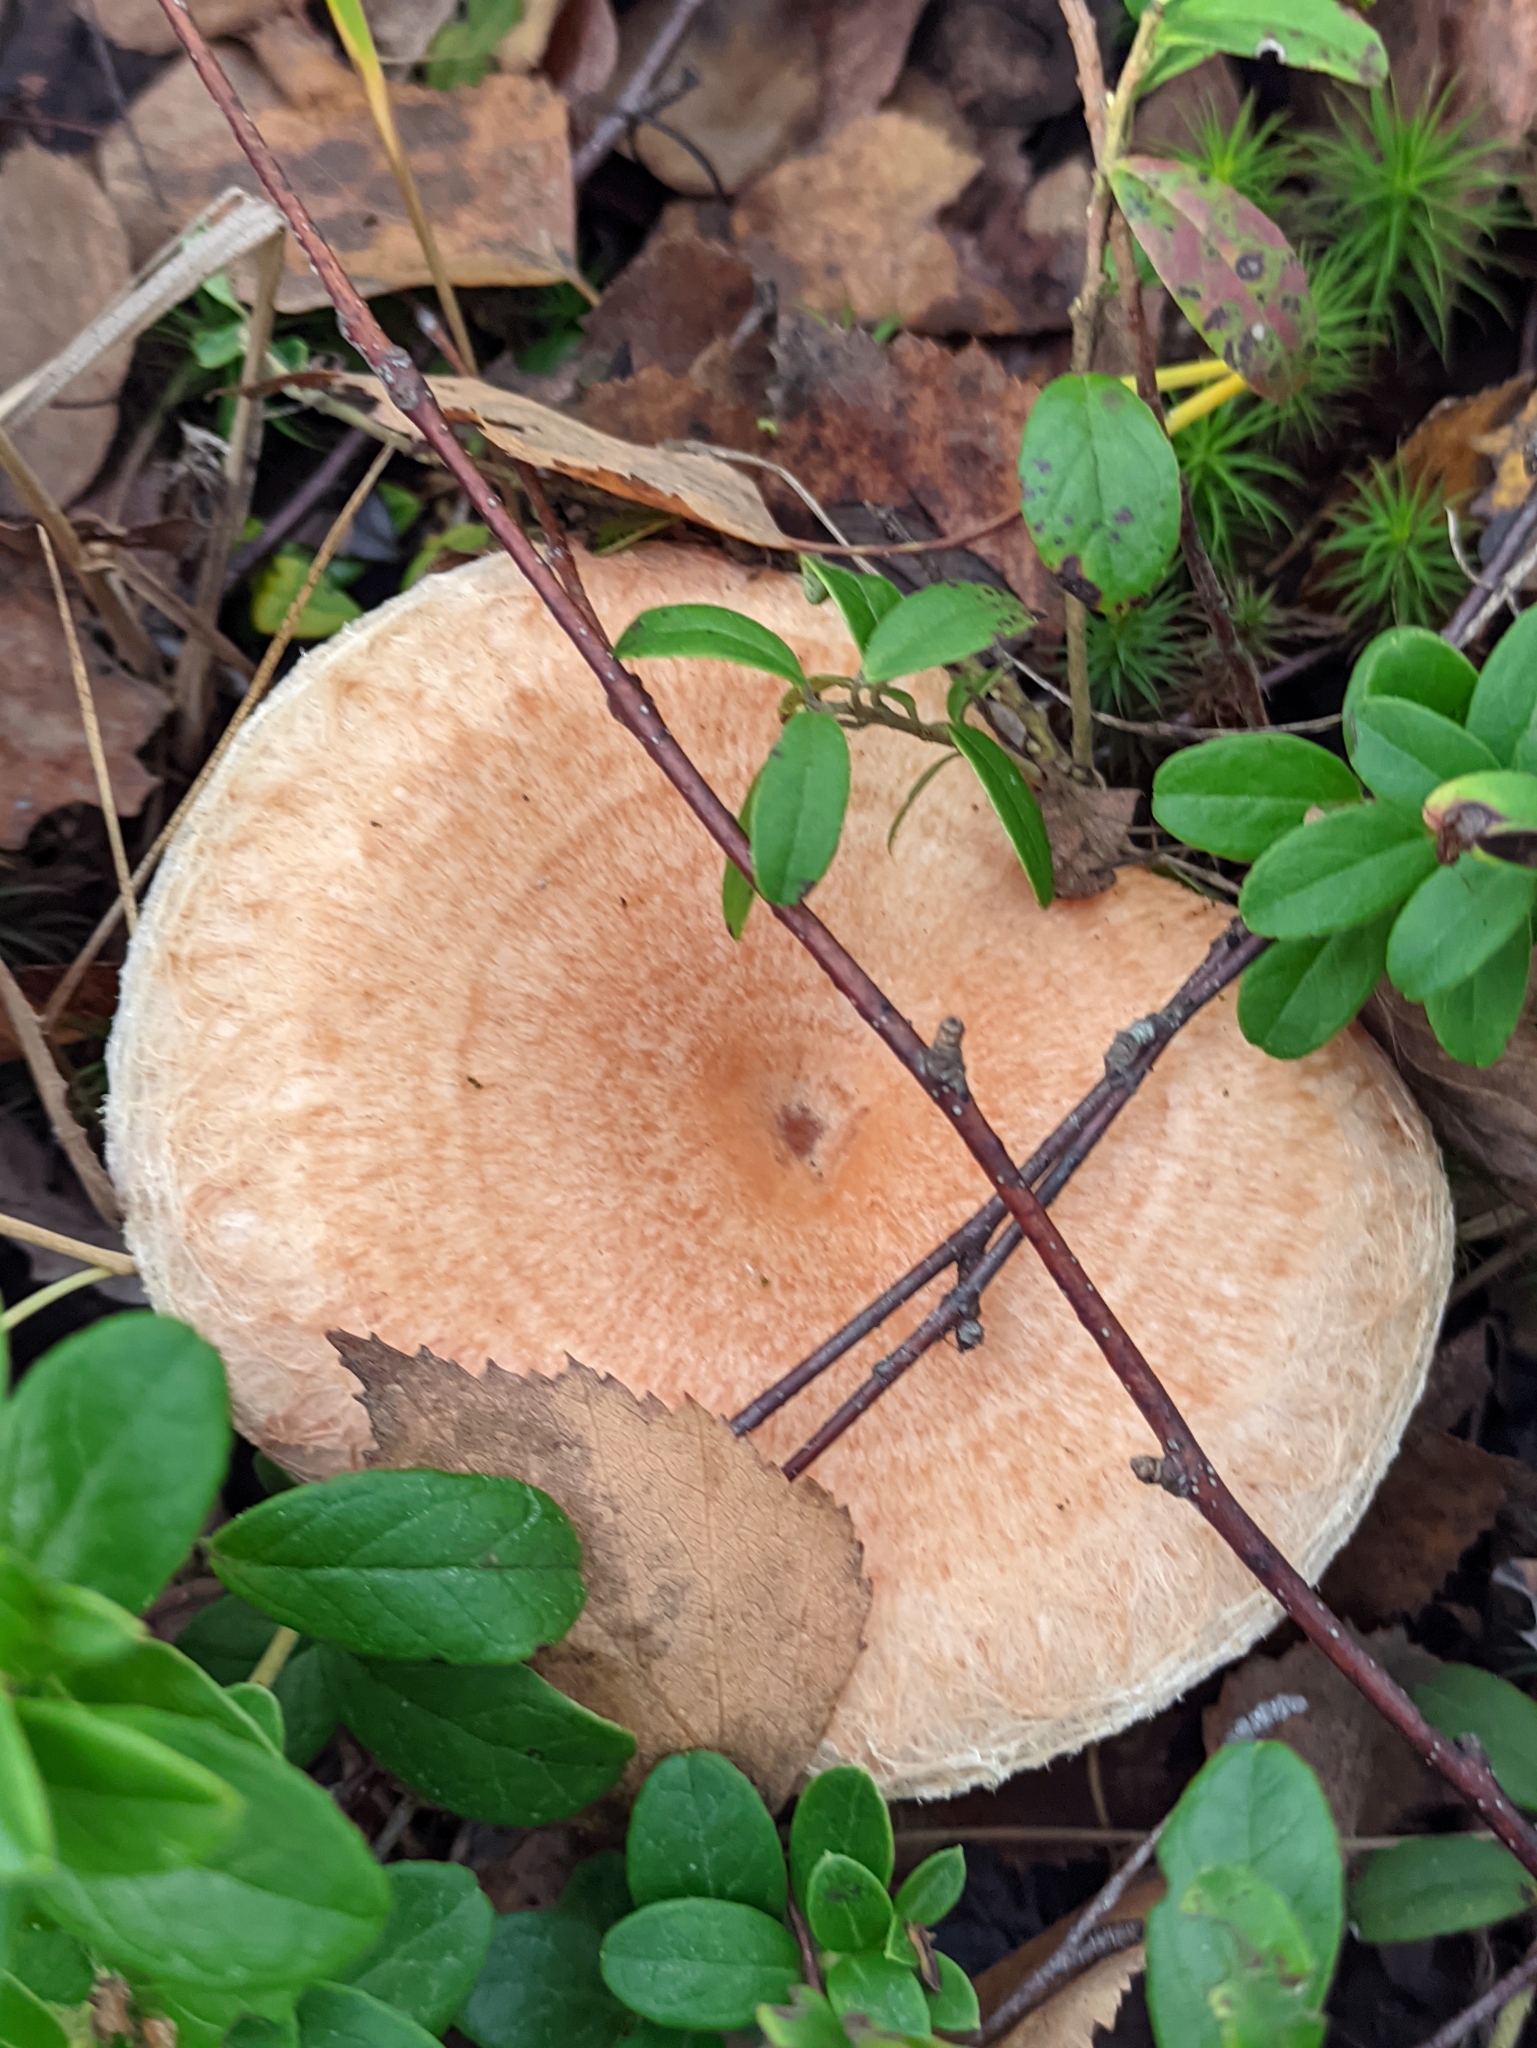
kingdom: Fungi
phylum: Basidiomycota
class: Agaricomycetes
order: Russulales
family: Russulaceae
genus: Lactarius
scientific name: Lactarius torminosus
